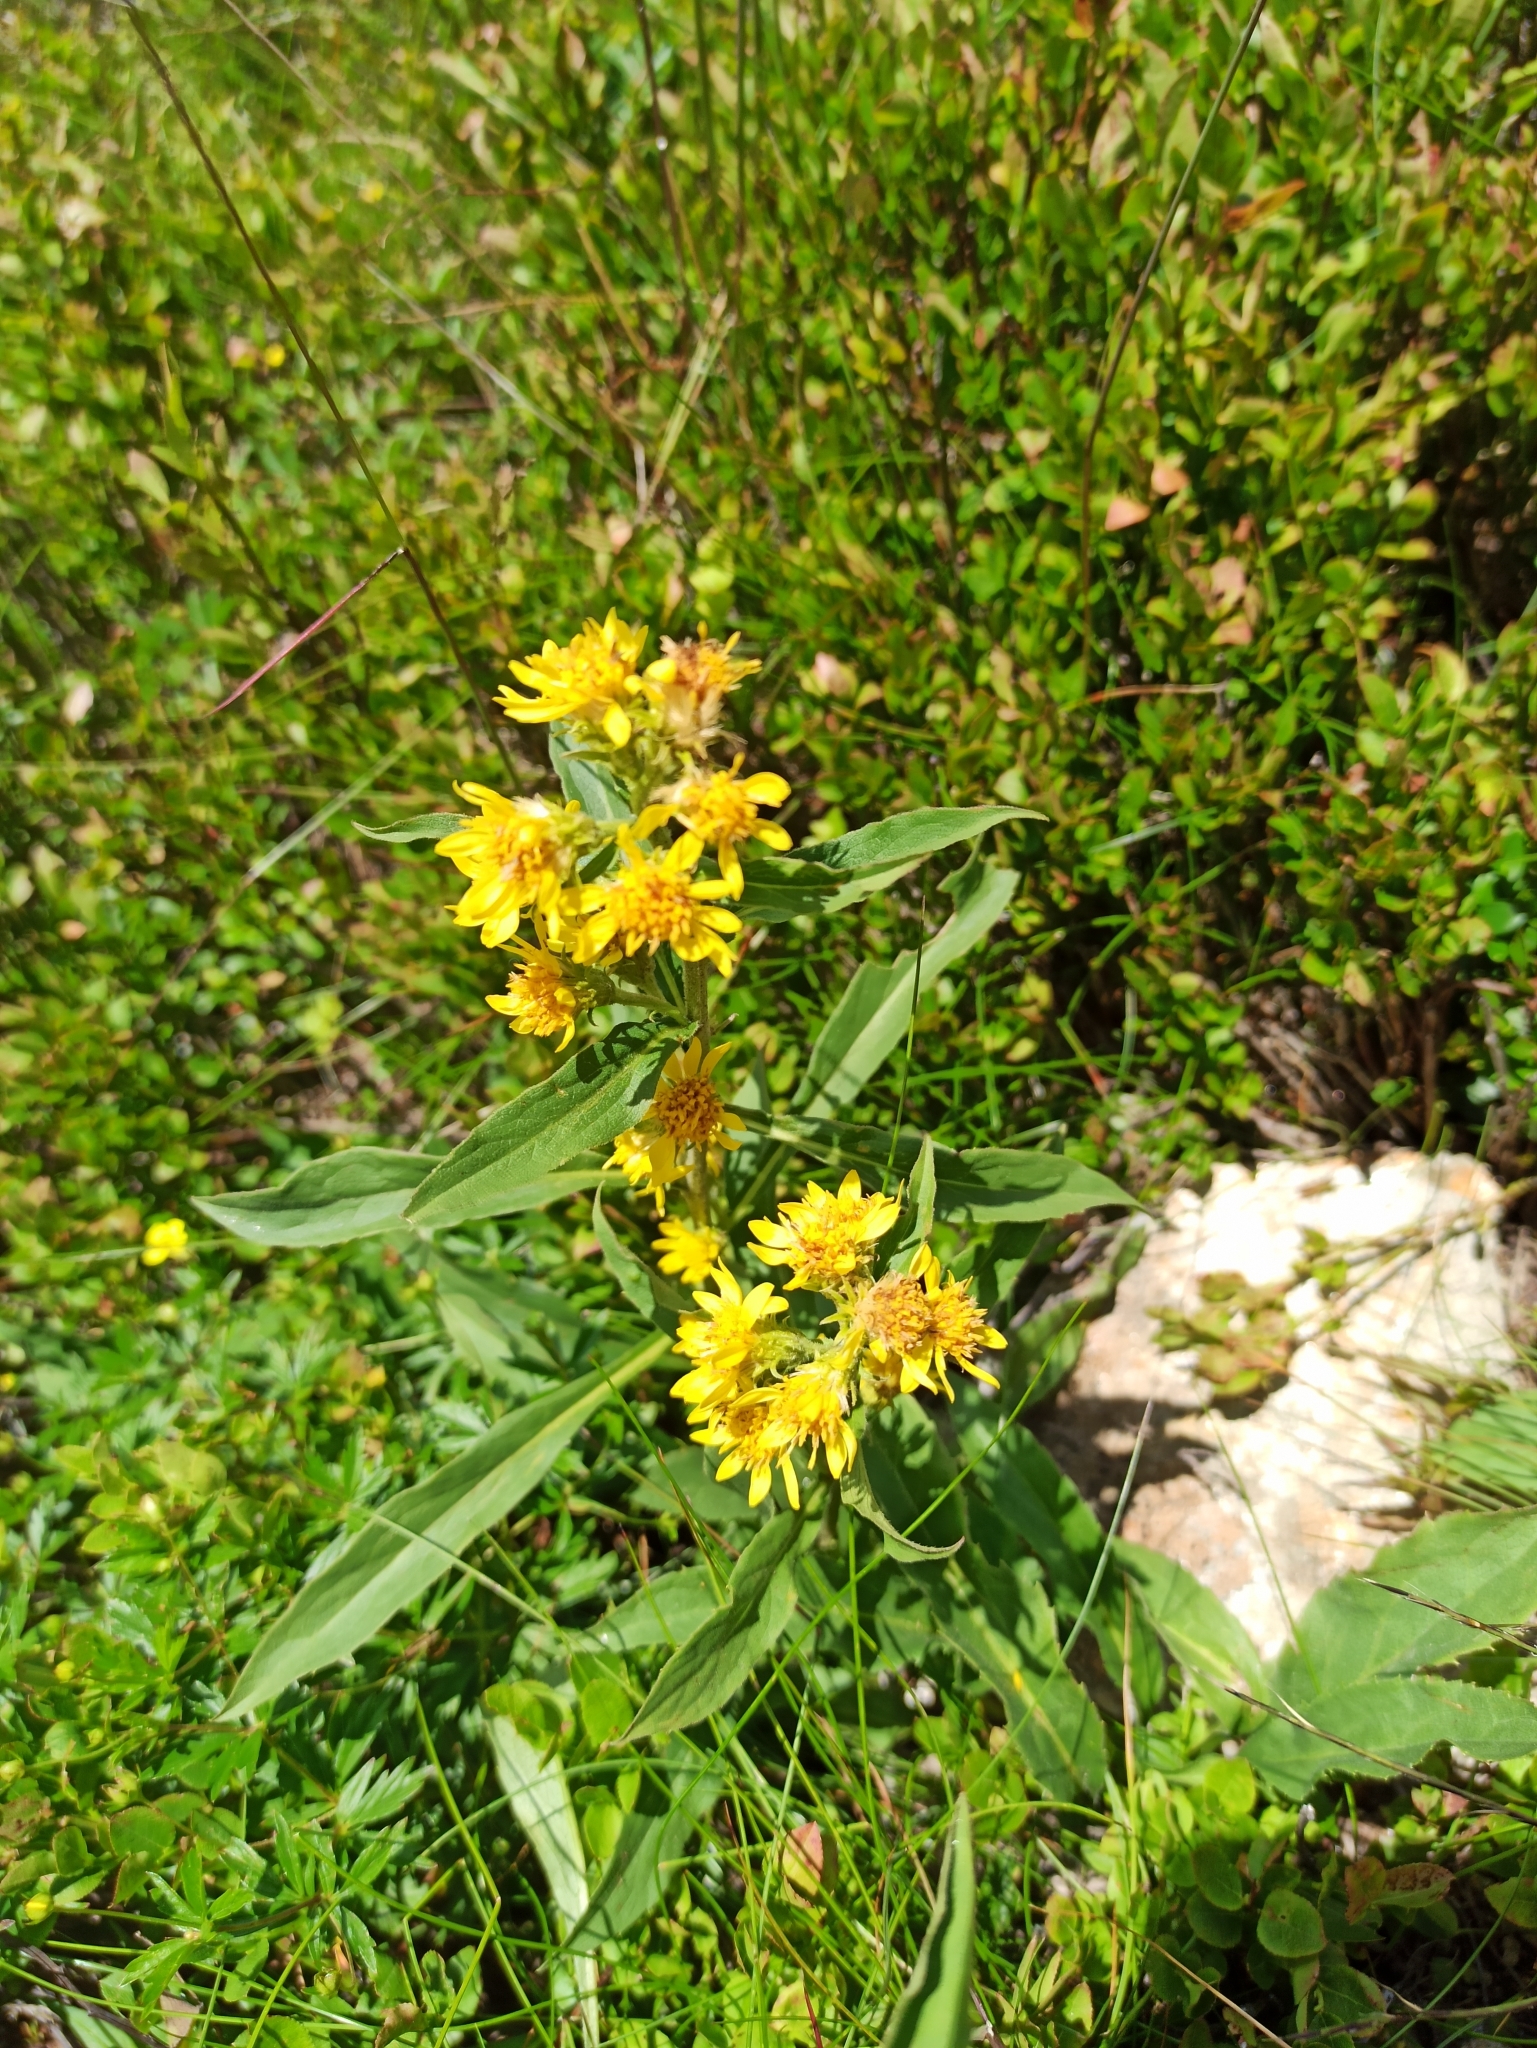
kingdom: Plantae
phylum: Tracheophyta
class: Magnoliopsida
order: Asterales
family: Asteraceae
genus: Solidago
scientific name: Solidago virgaurea
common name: Goldenrod
